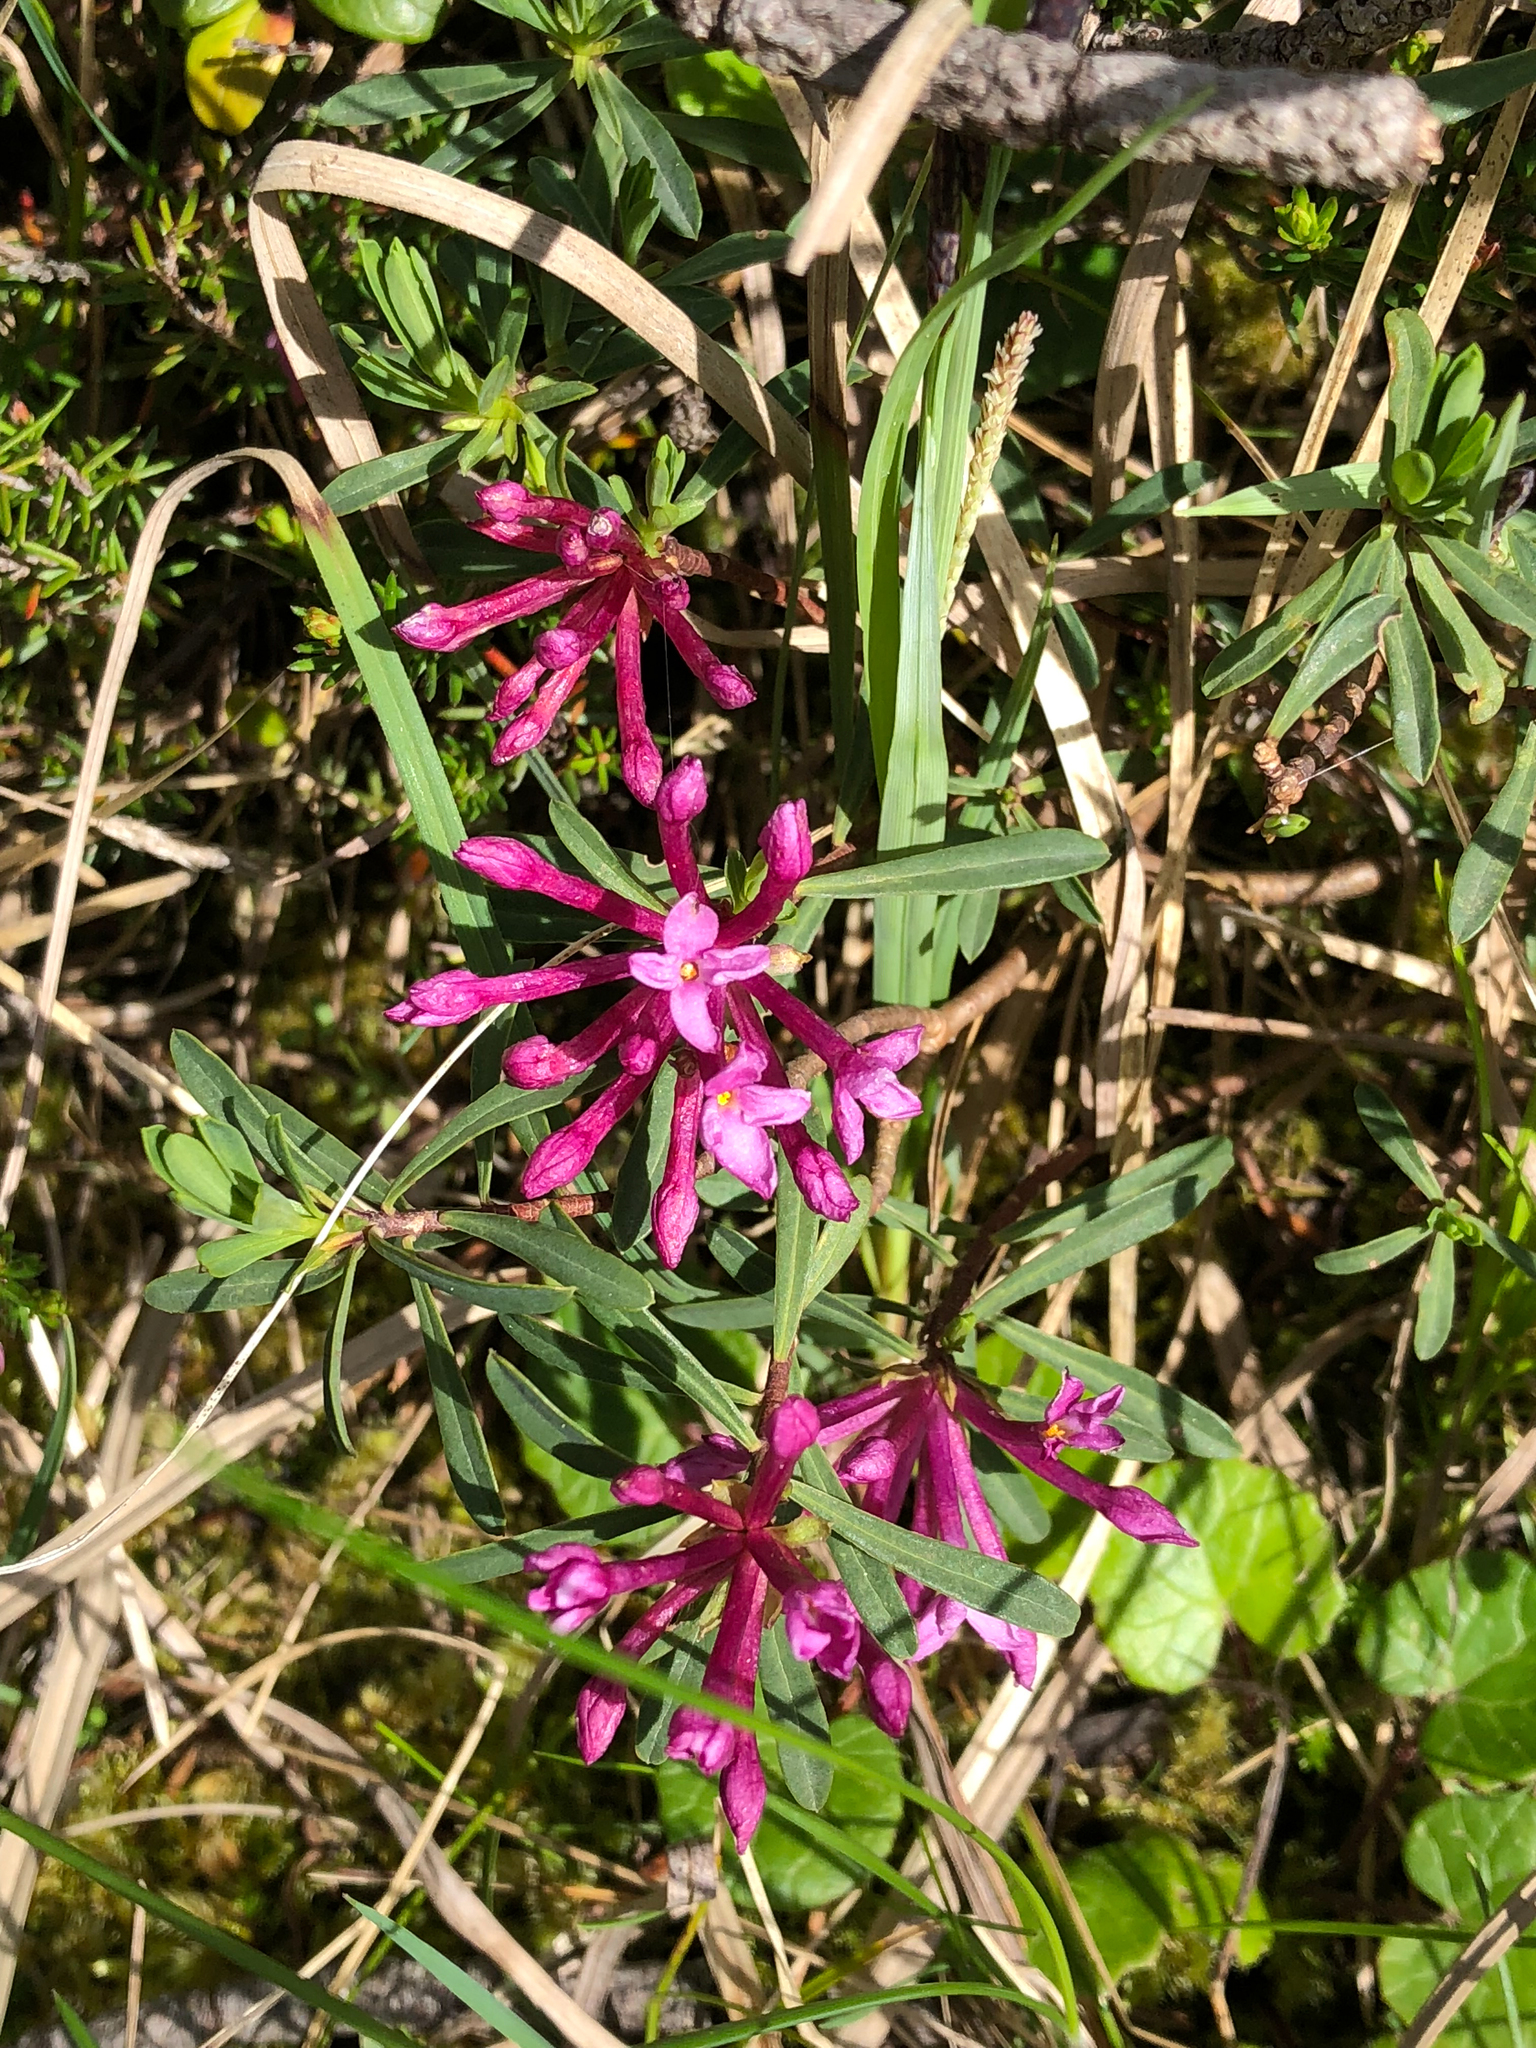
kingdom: Plantae
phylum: Tracheophyta
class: Magnoliopsida
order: Malvales
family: Thymelaeaceae
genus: Daphne
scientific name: Daphne striata
